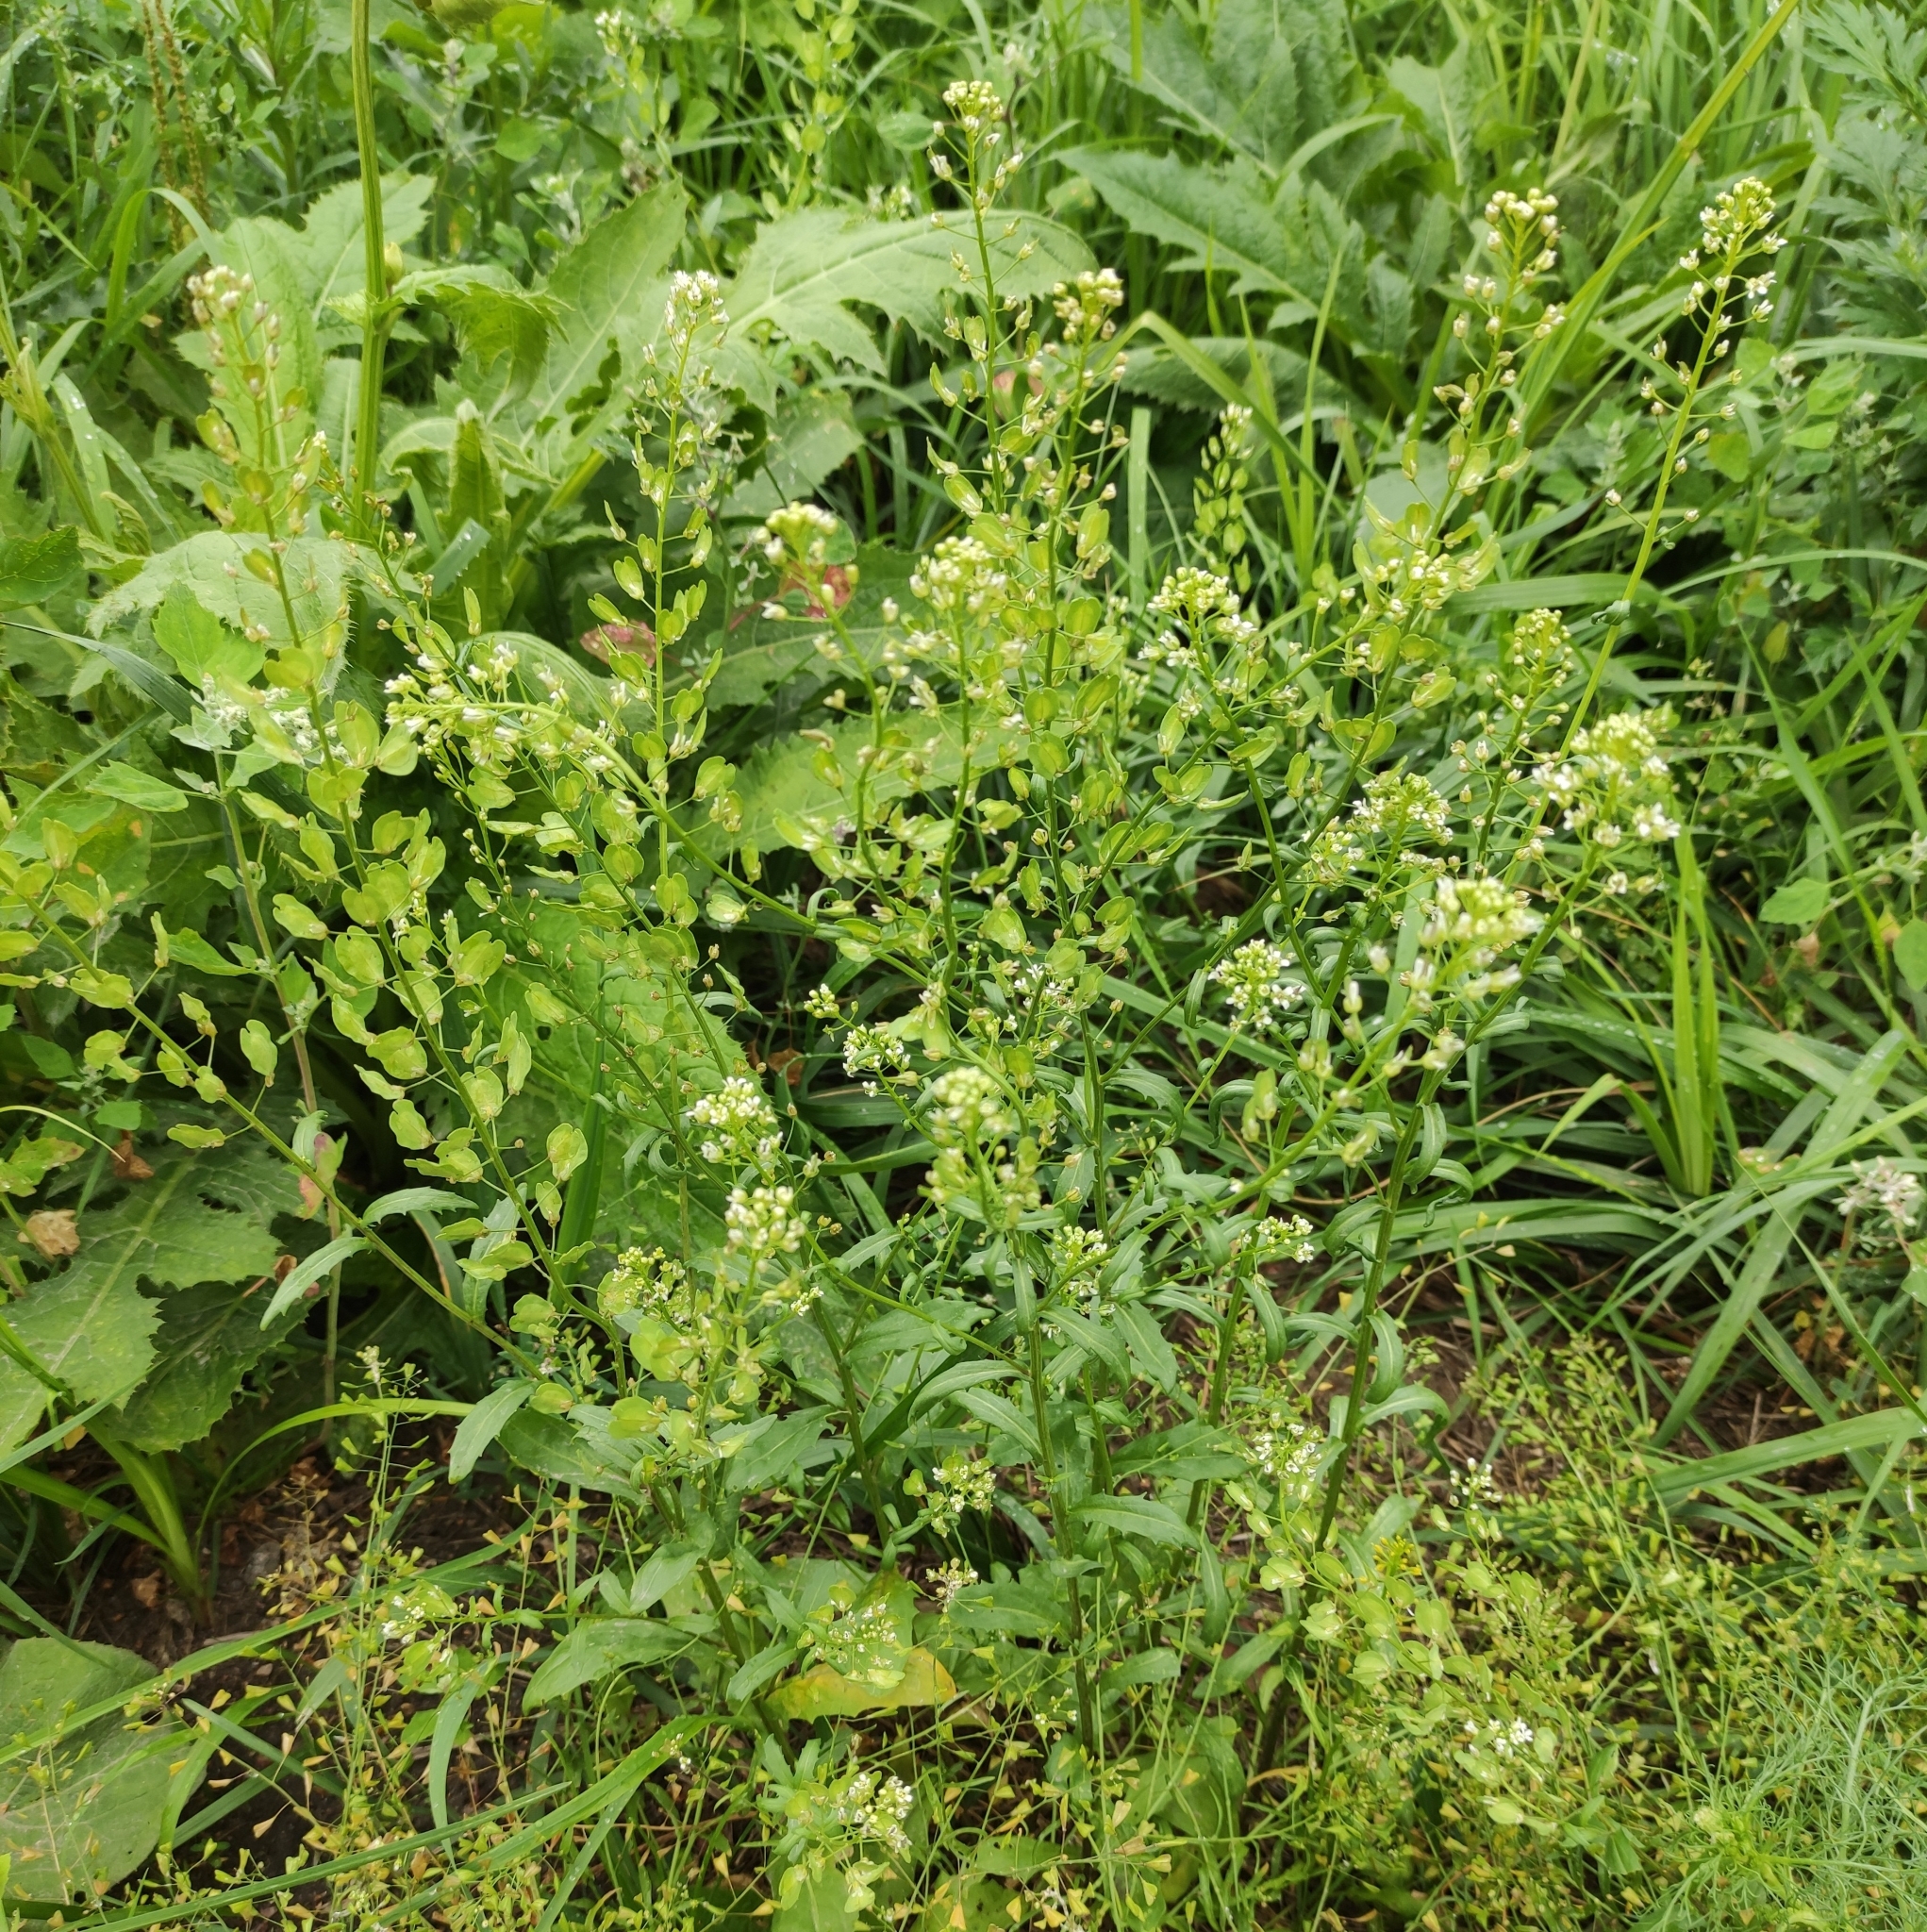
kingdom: Plantae
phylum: Tracheophyta
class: Magnoliopsida
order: Brassicales
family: Brassicaceae
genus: Thlaspi
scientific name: Thlaspi arvense
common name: Field pennycress
